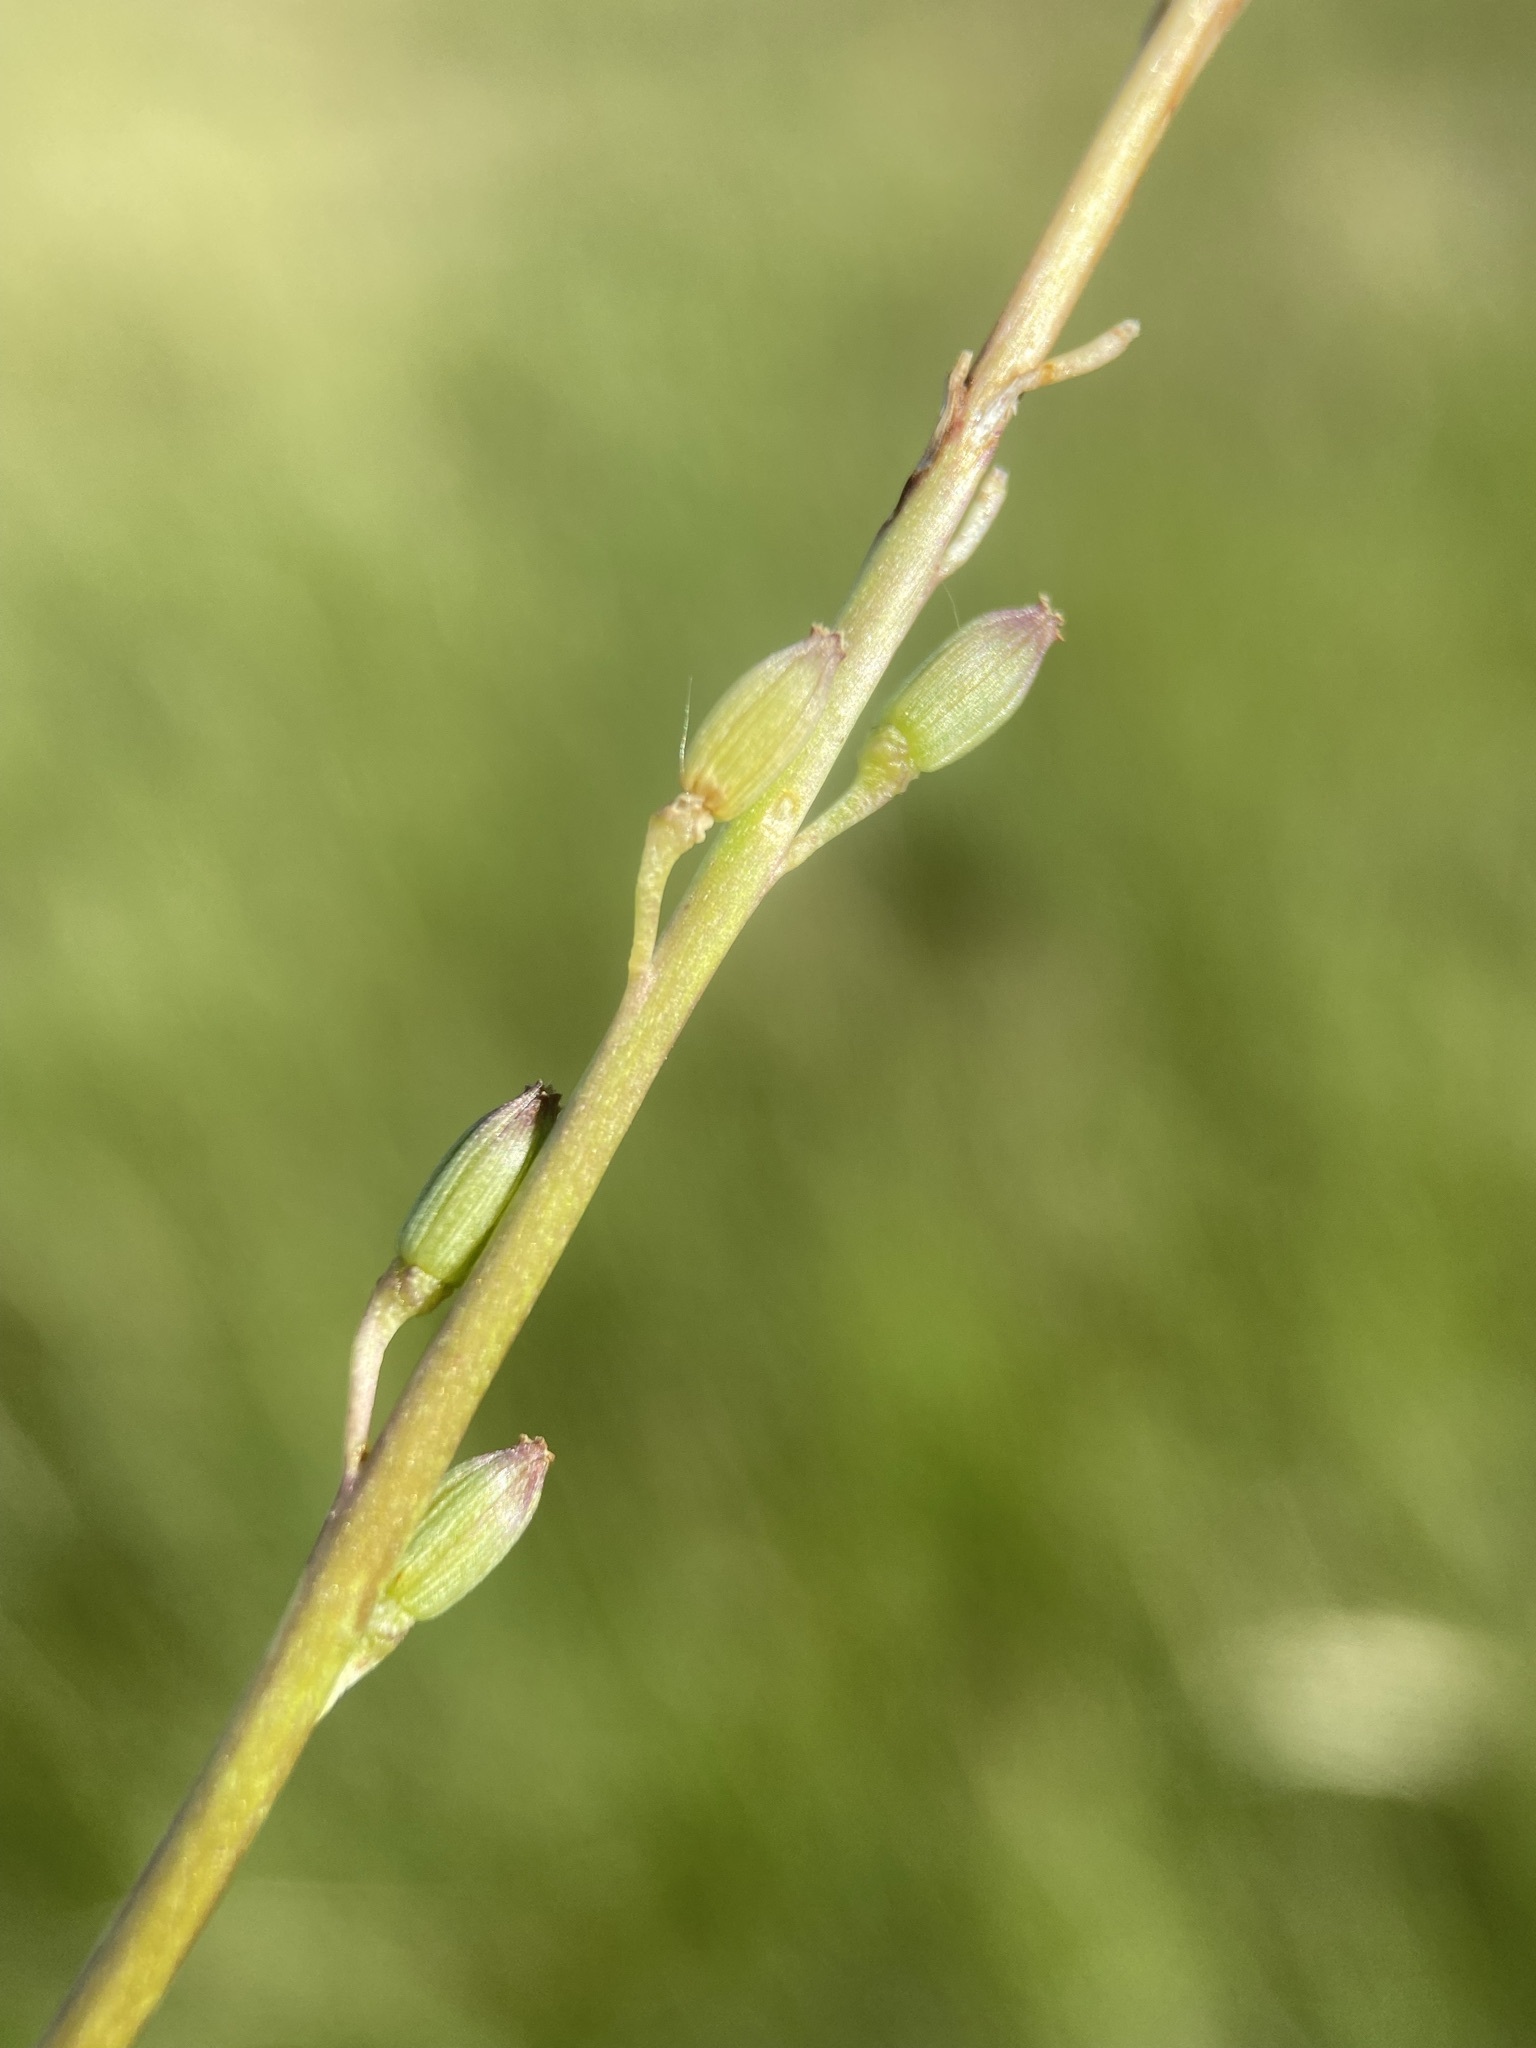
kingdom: Plantae
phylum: Tracheophyta
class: Liliopsida
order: Alismatales
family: Juncaginaceae
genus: Triglochin
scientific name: Triglochin palustris
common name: Marsh arrowgrass
